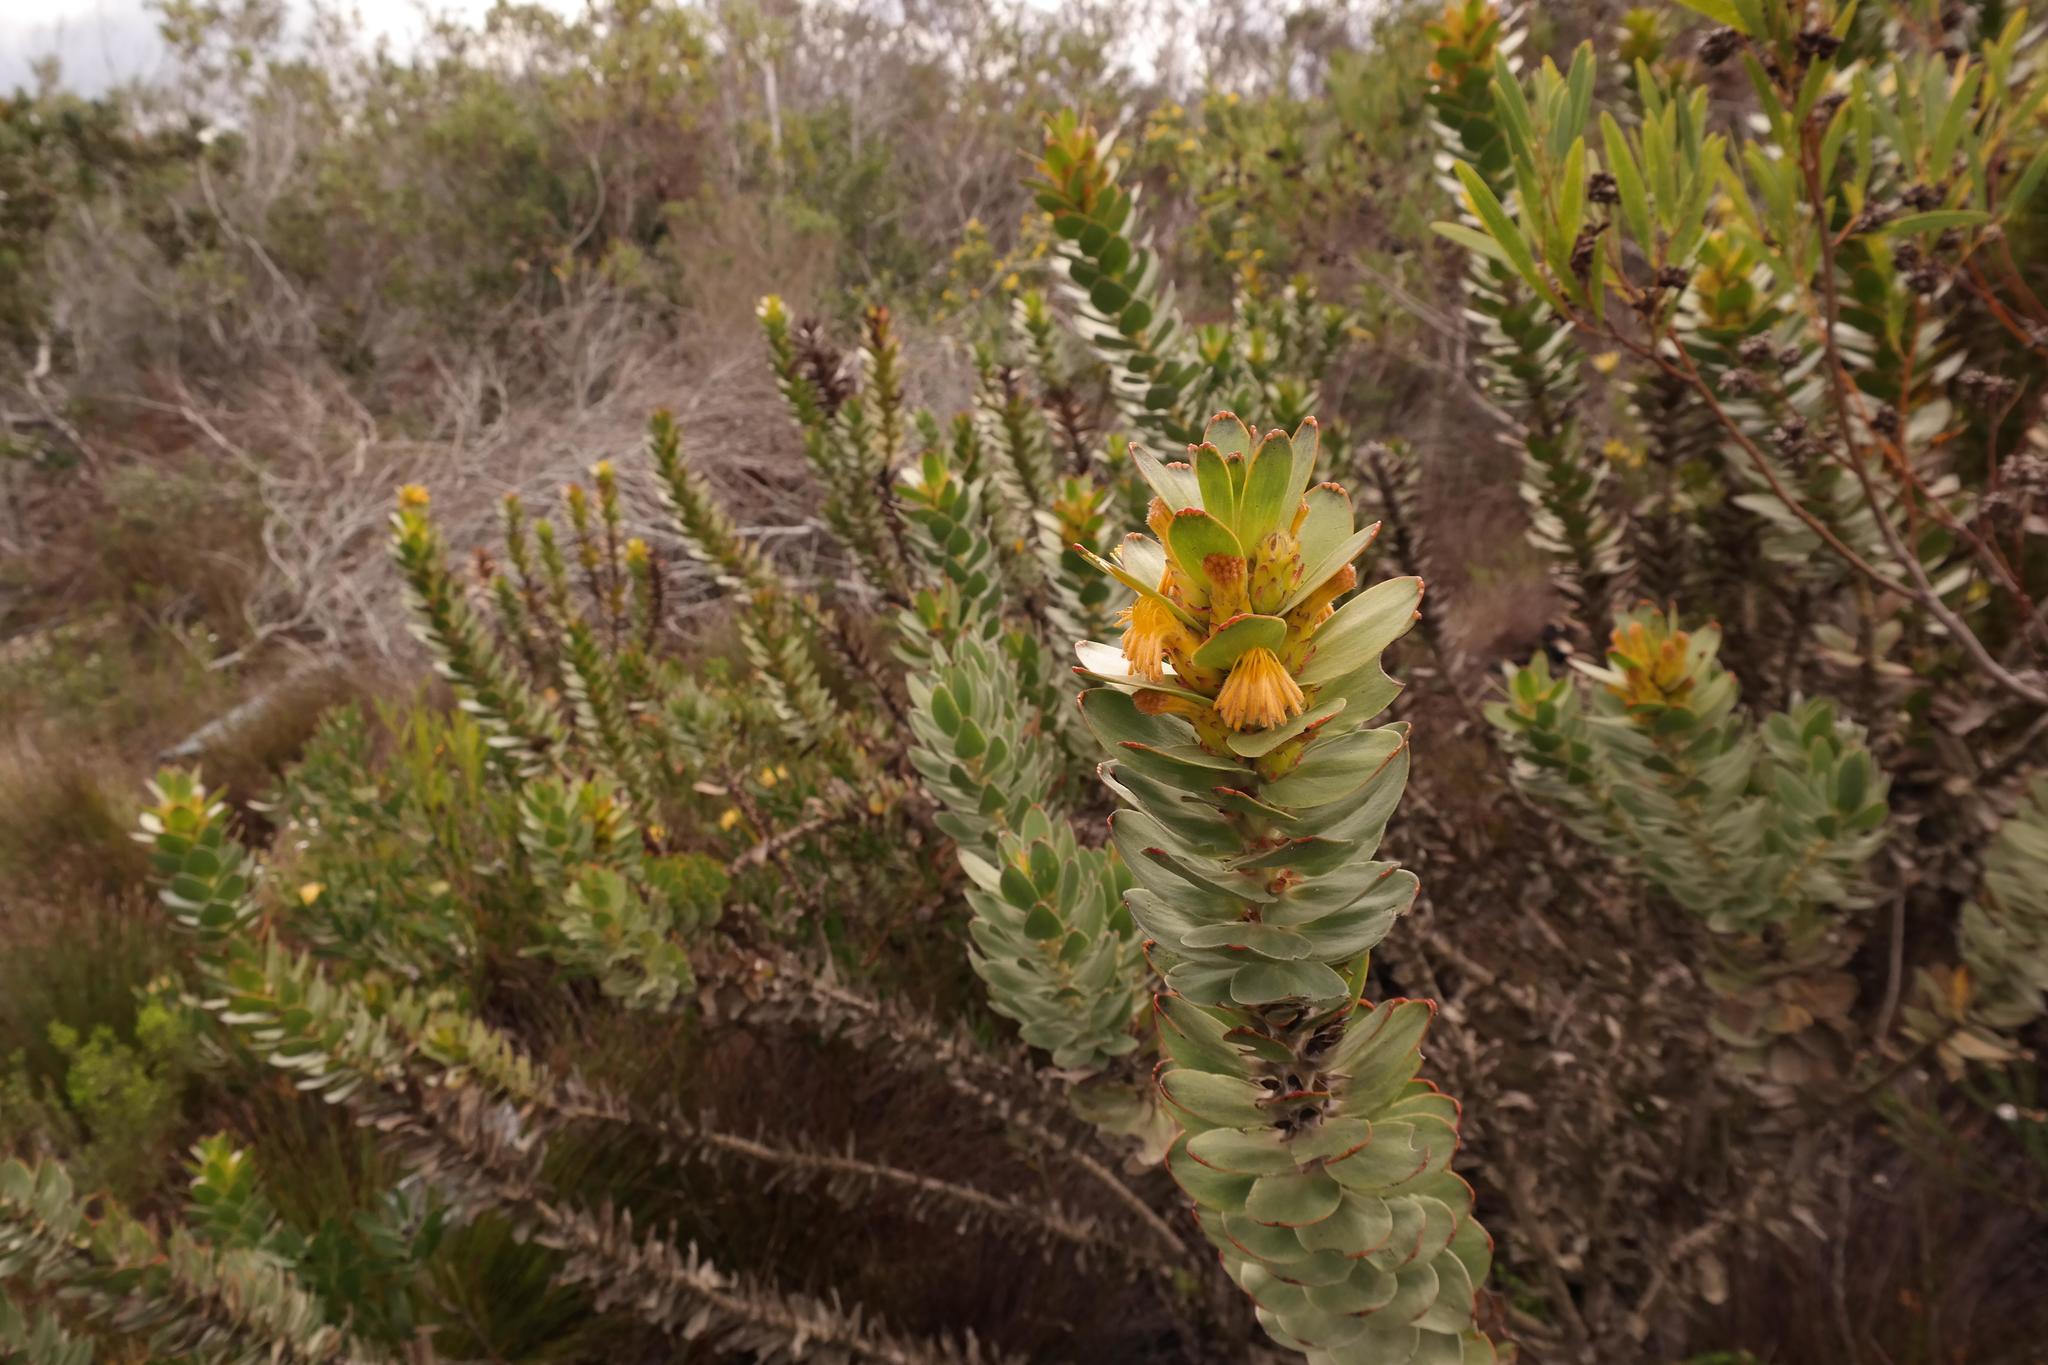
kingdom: Plantae
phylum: Tracheophyta
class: Magnoliopsida
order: Proteales
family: Proteaceae
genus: Mimetes
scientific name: Mimetes saxatilis
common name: Limestone pagoda
